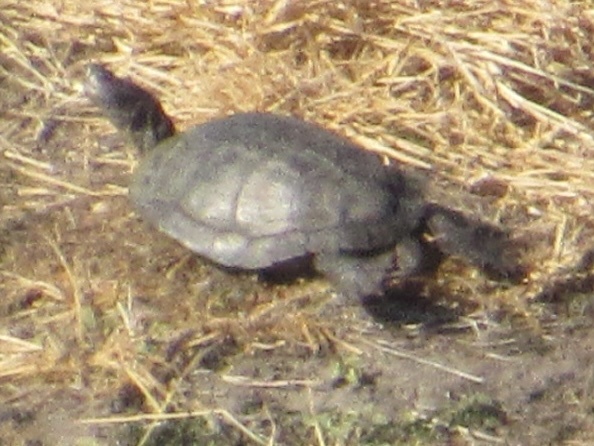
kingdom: Animalia
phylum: Chordata
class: Testudines
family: Emydidae
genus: Trachemys
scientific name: Trachemys scripta
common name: Slider
